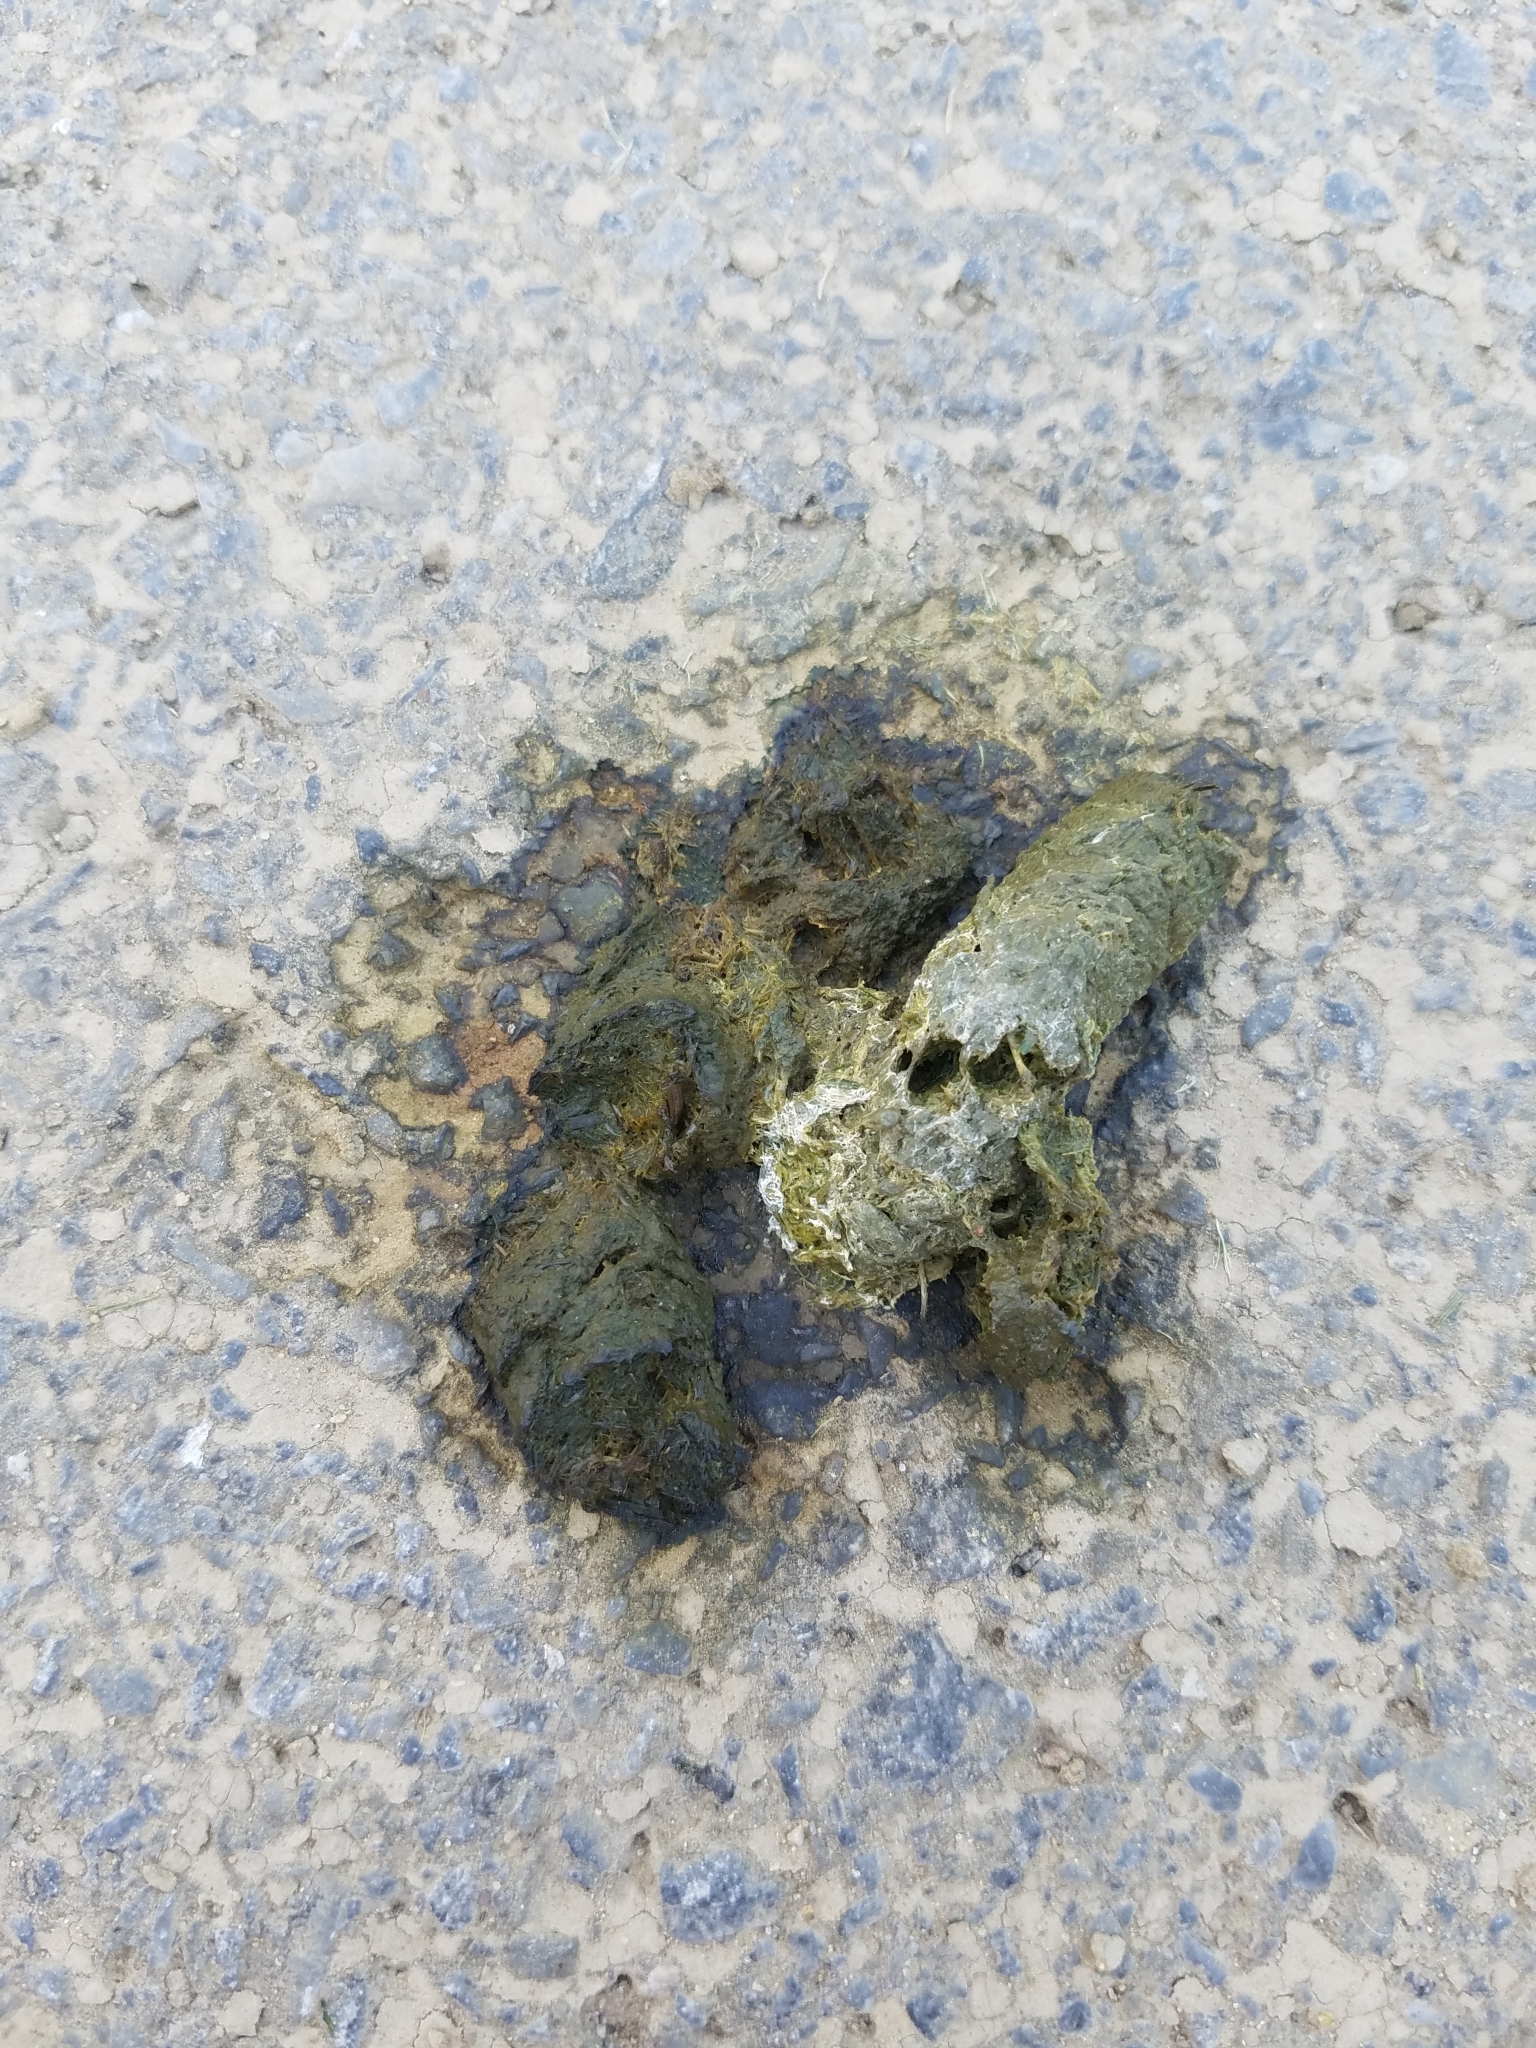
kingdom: Animalia
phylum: Chordata
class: Aves
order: Anseriformes
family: Anatidae
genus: Branta
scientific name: Branta canadensis
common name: Canada goose
